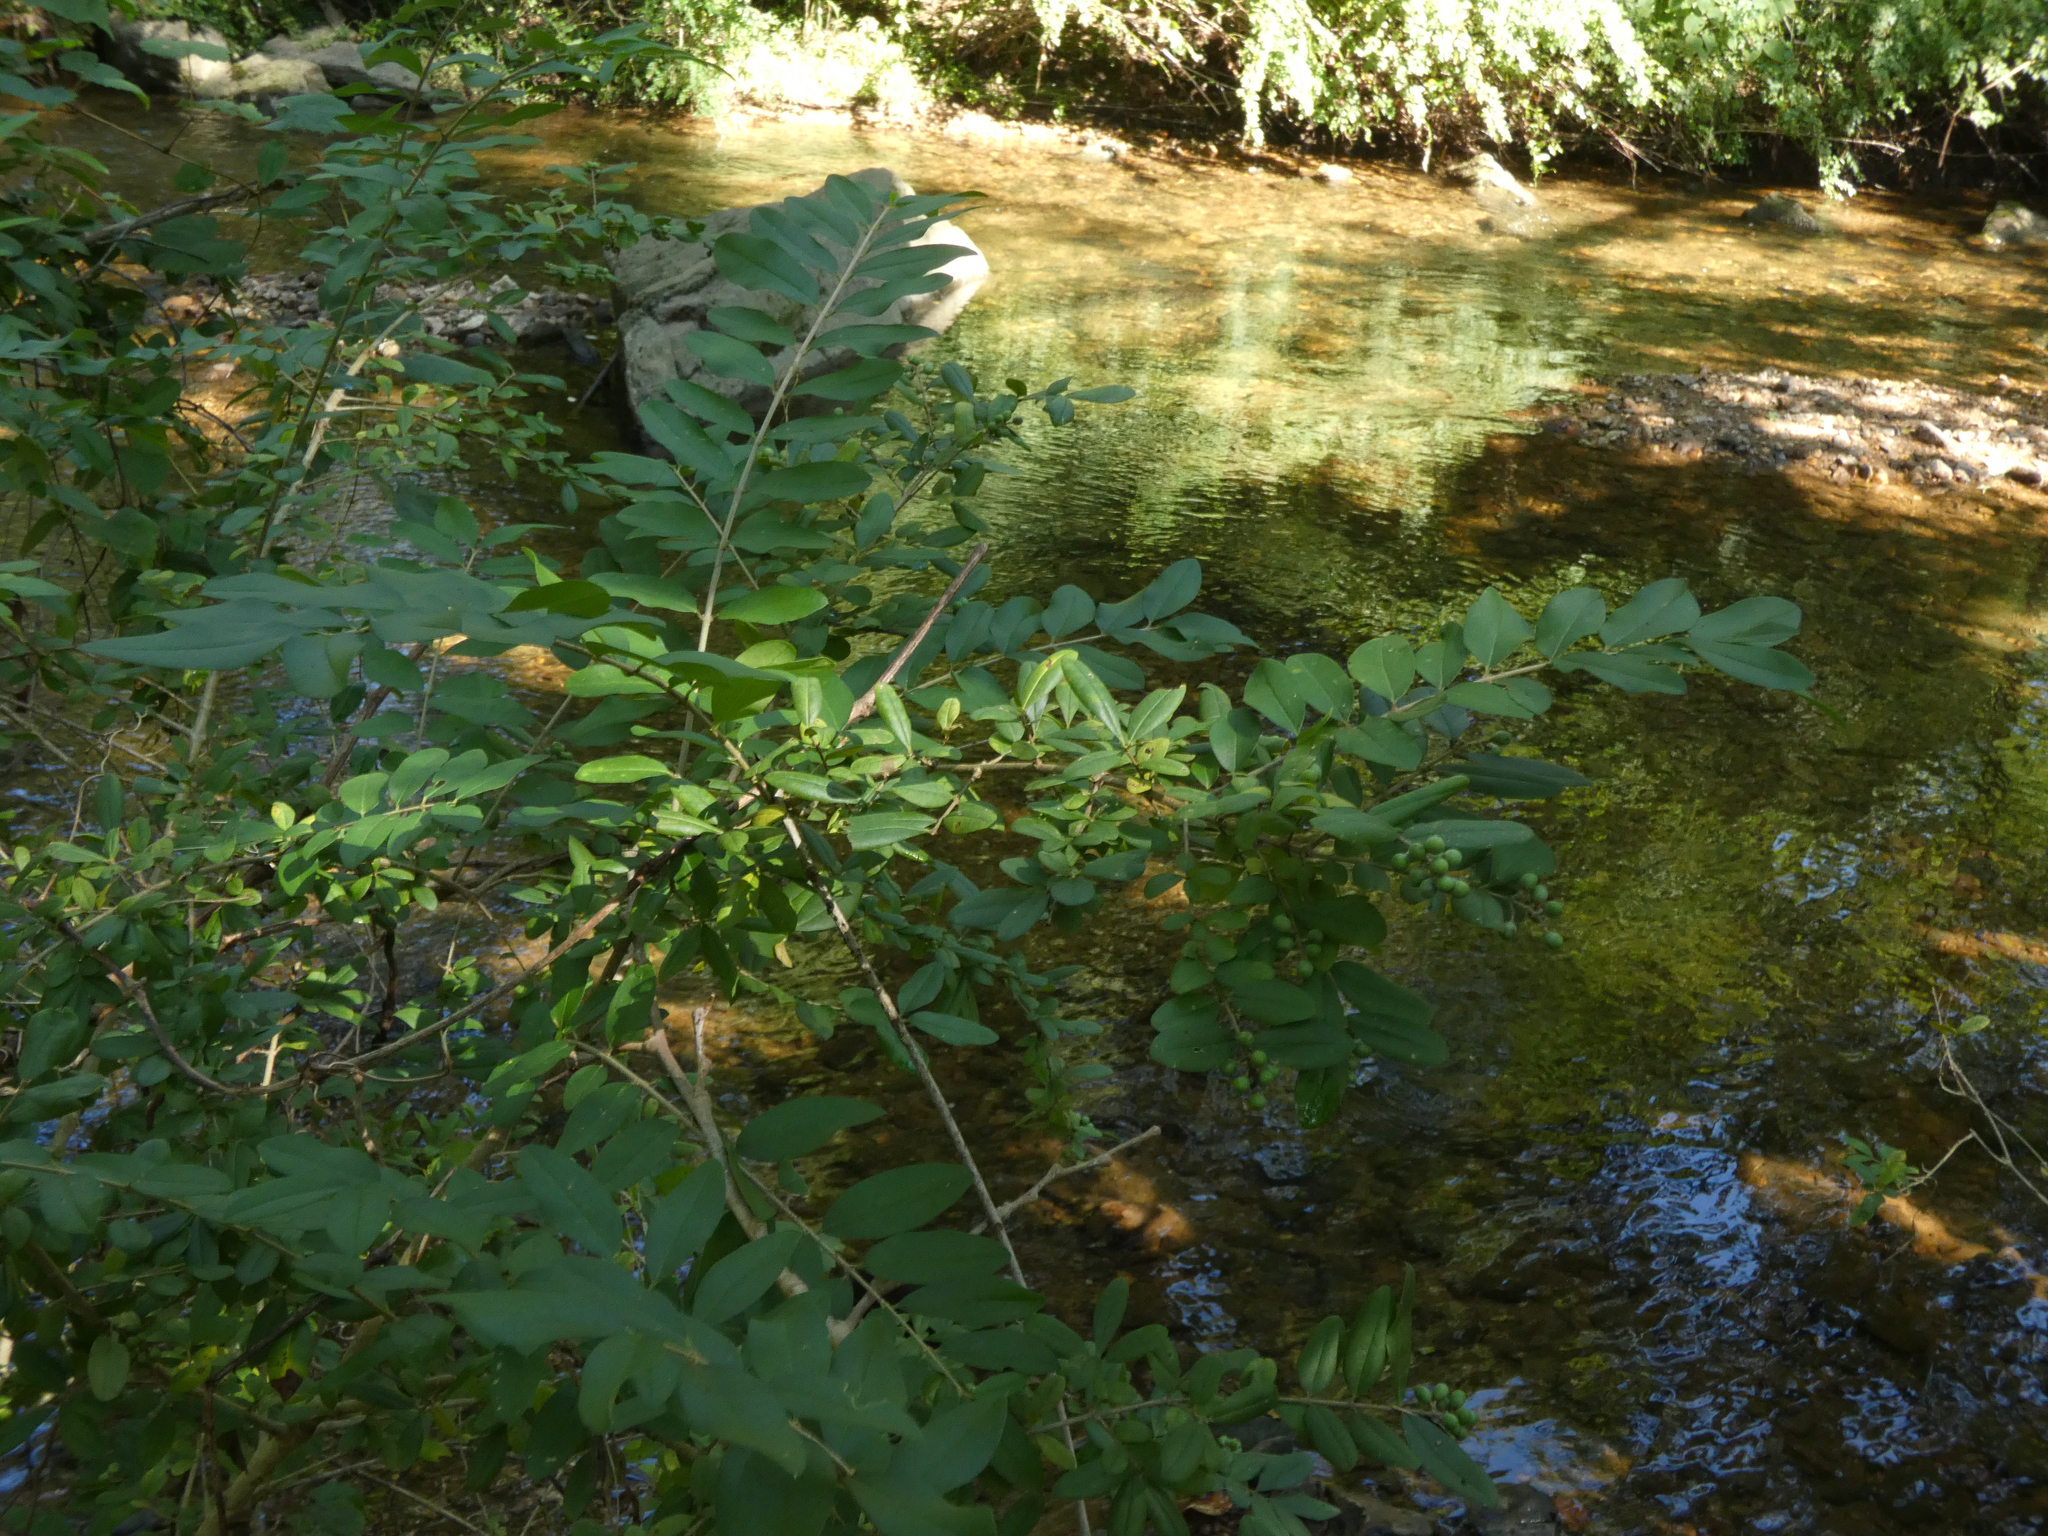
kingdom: Plantae
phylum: Tracheophyta
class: Magnoliopsida
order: Lamiales
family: Oleaceae
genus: Ligustrum
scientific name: Ligustrum obtusifolium
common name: Border privet
